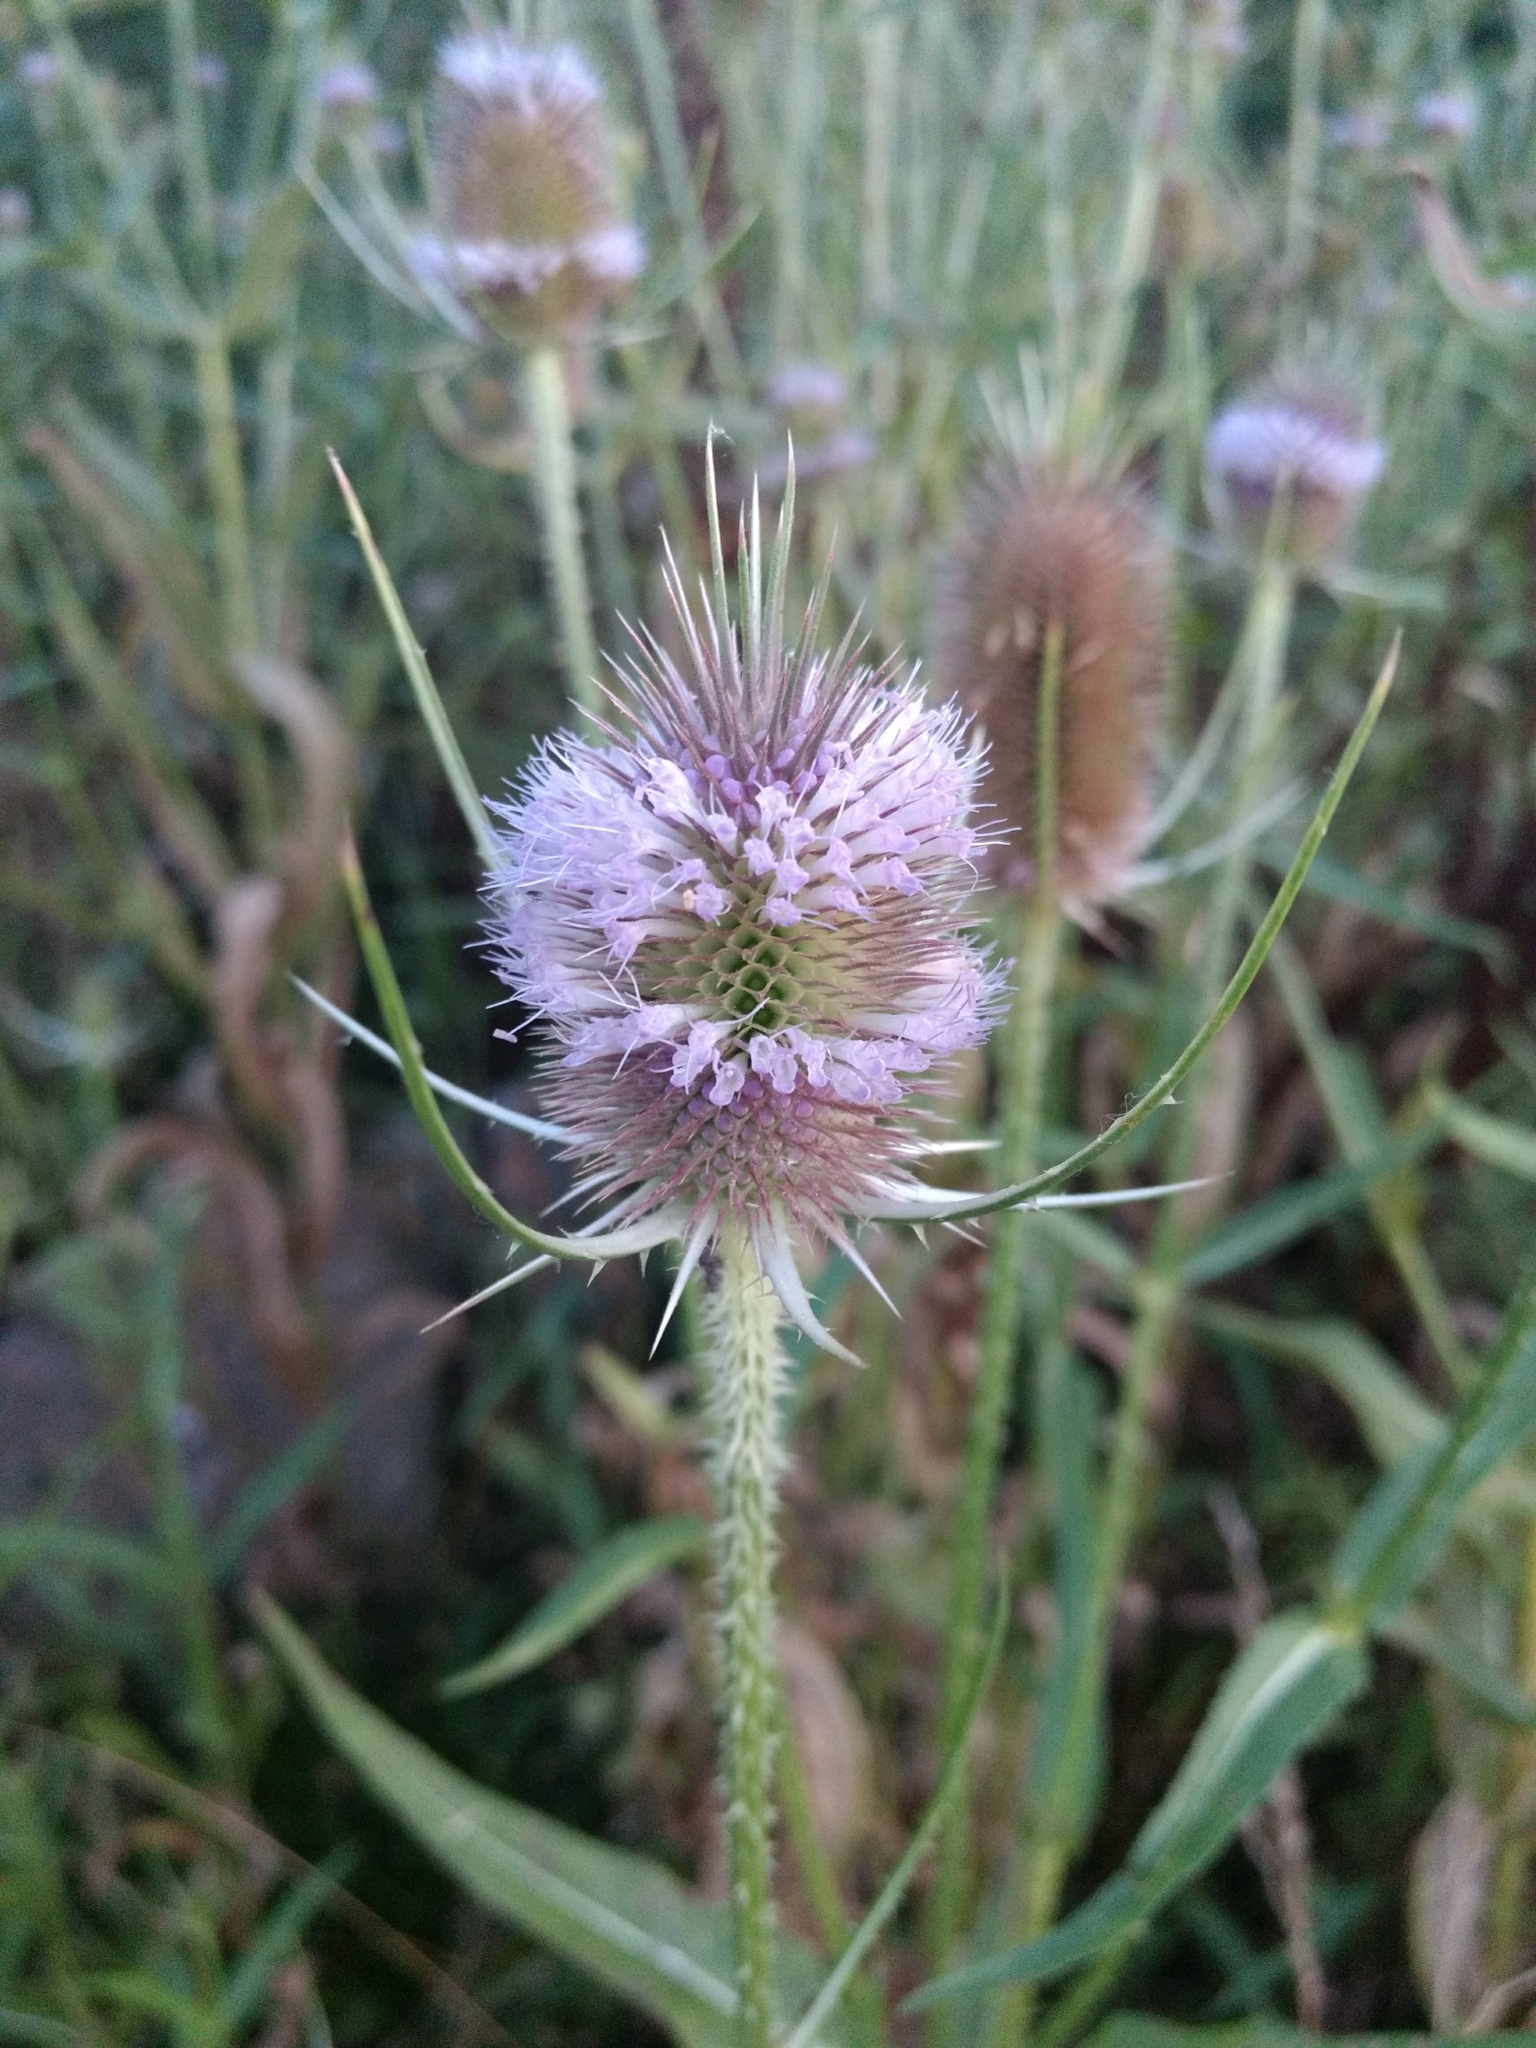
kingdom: Plantae
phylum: Tracheophyta
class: Magnoliopsida
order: Dipsacales
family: Caprifoliaceae
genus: Dipsacus
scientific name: Dipsacus fullonum
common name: Teasel
